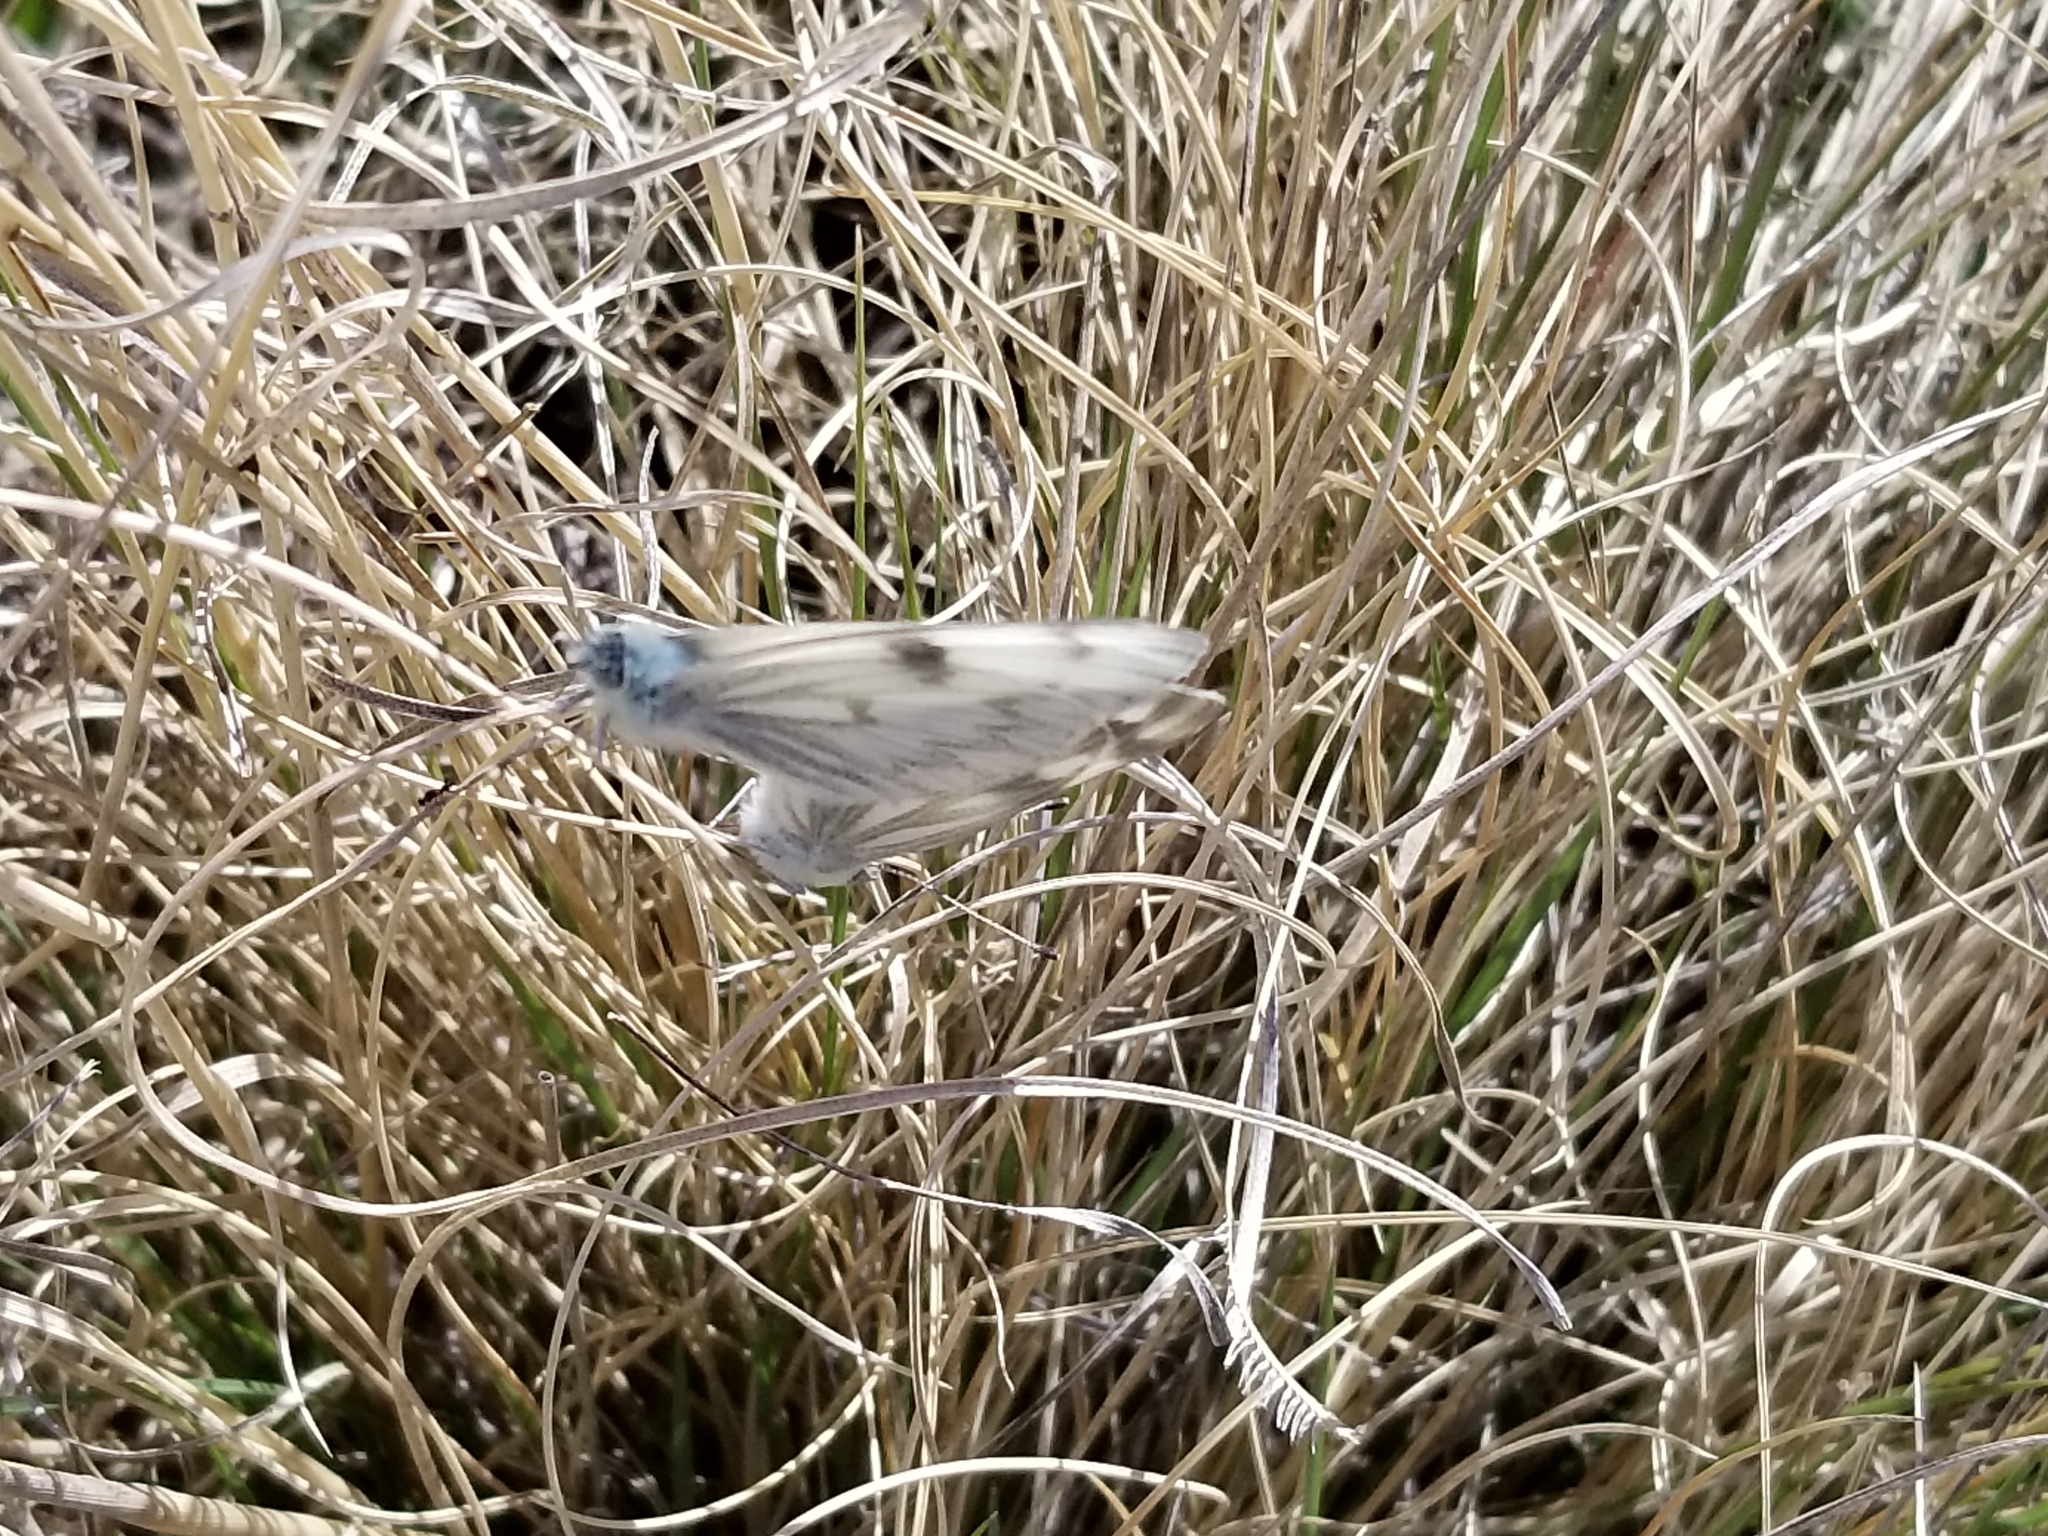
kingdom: Animalia
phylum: Arthropoda
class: Insecta
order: Lepidoptera
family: Pieridae
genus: Pontia
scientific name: Pontia protodice
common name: Checkered white
